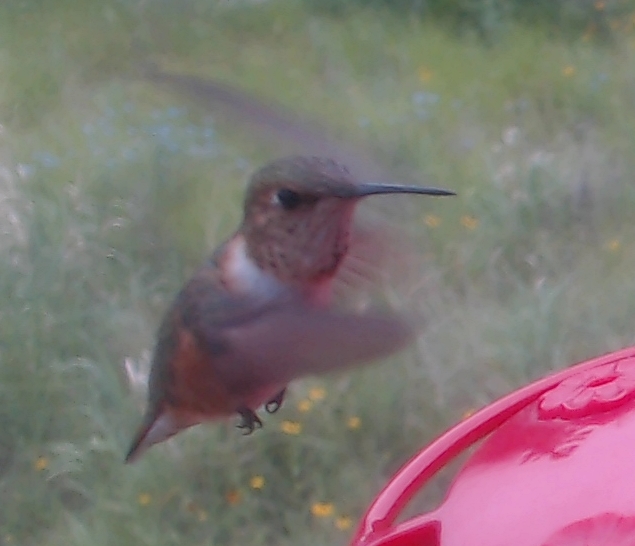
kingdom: Animalia
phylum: Chordata
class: Aves
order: Apodiformes
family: Trochilidae
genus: Selasphorus
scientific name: Selasphorus rufus
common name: Rufous hummingbird
